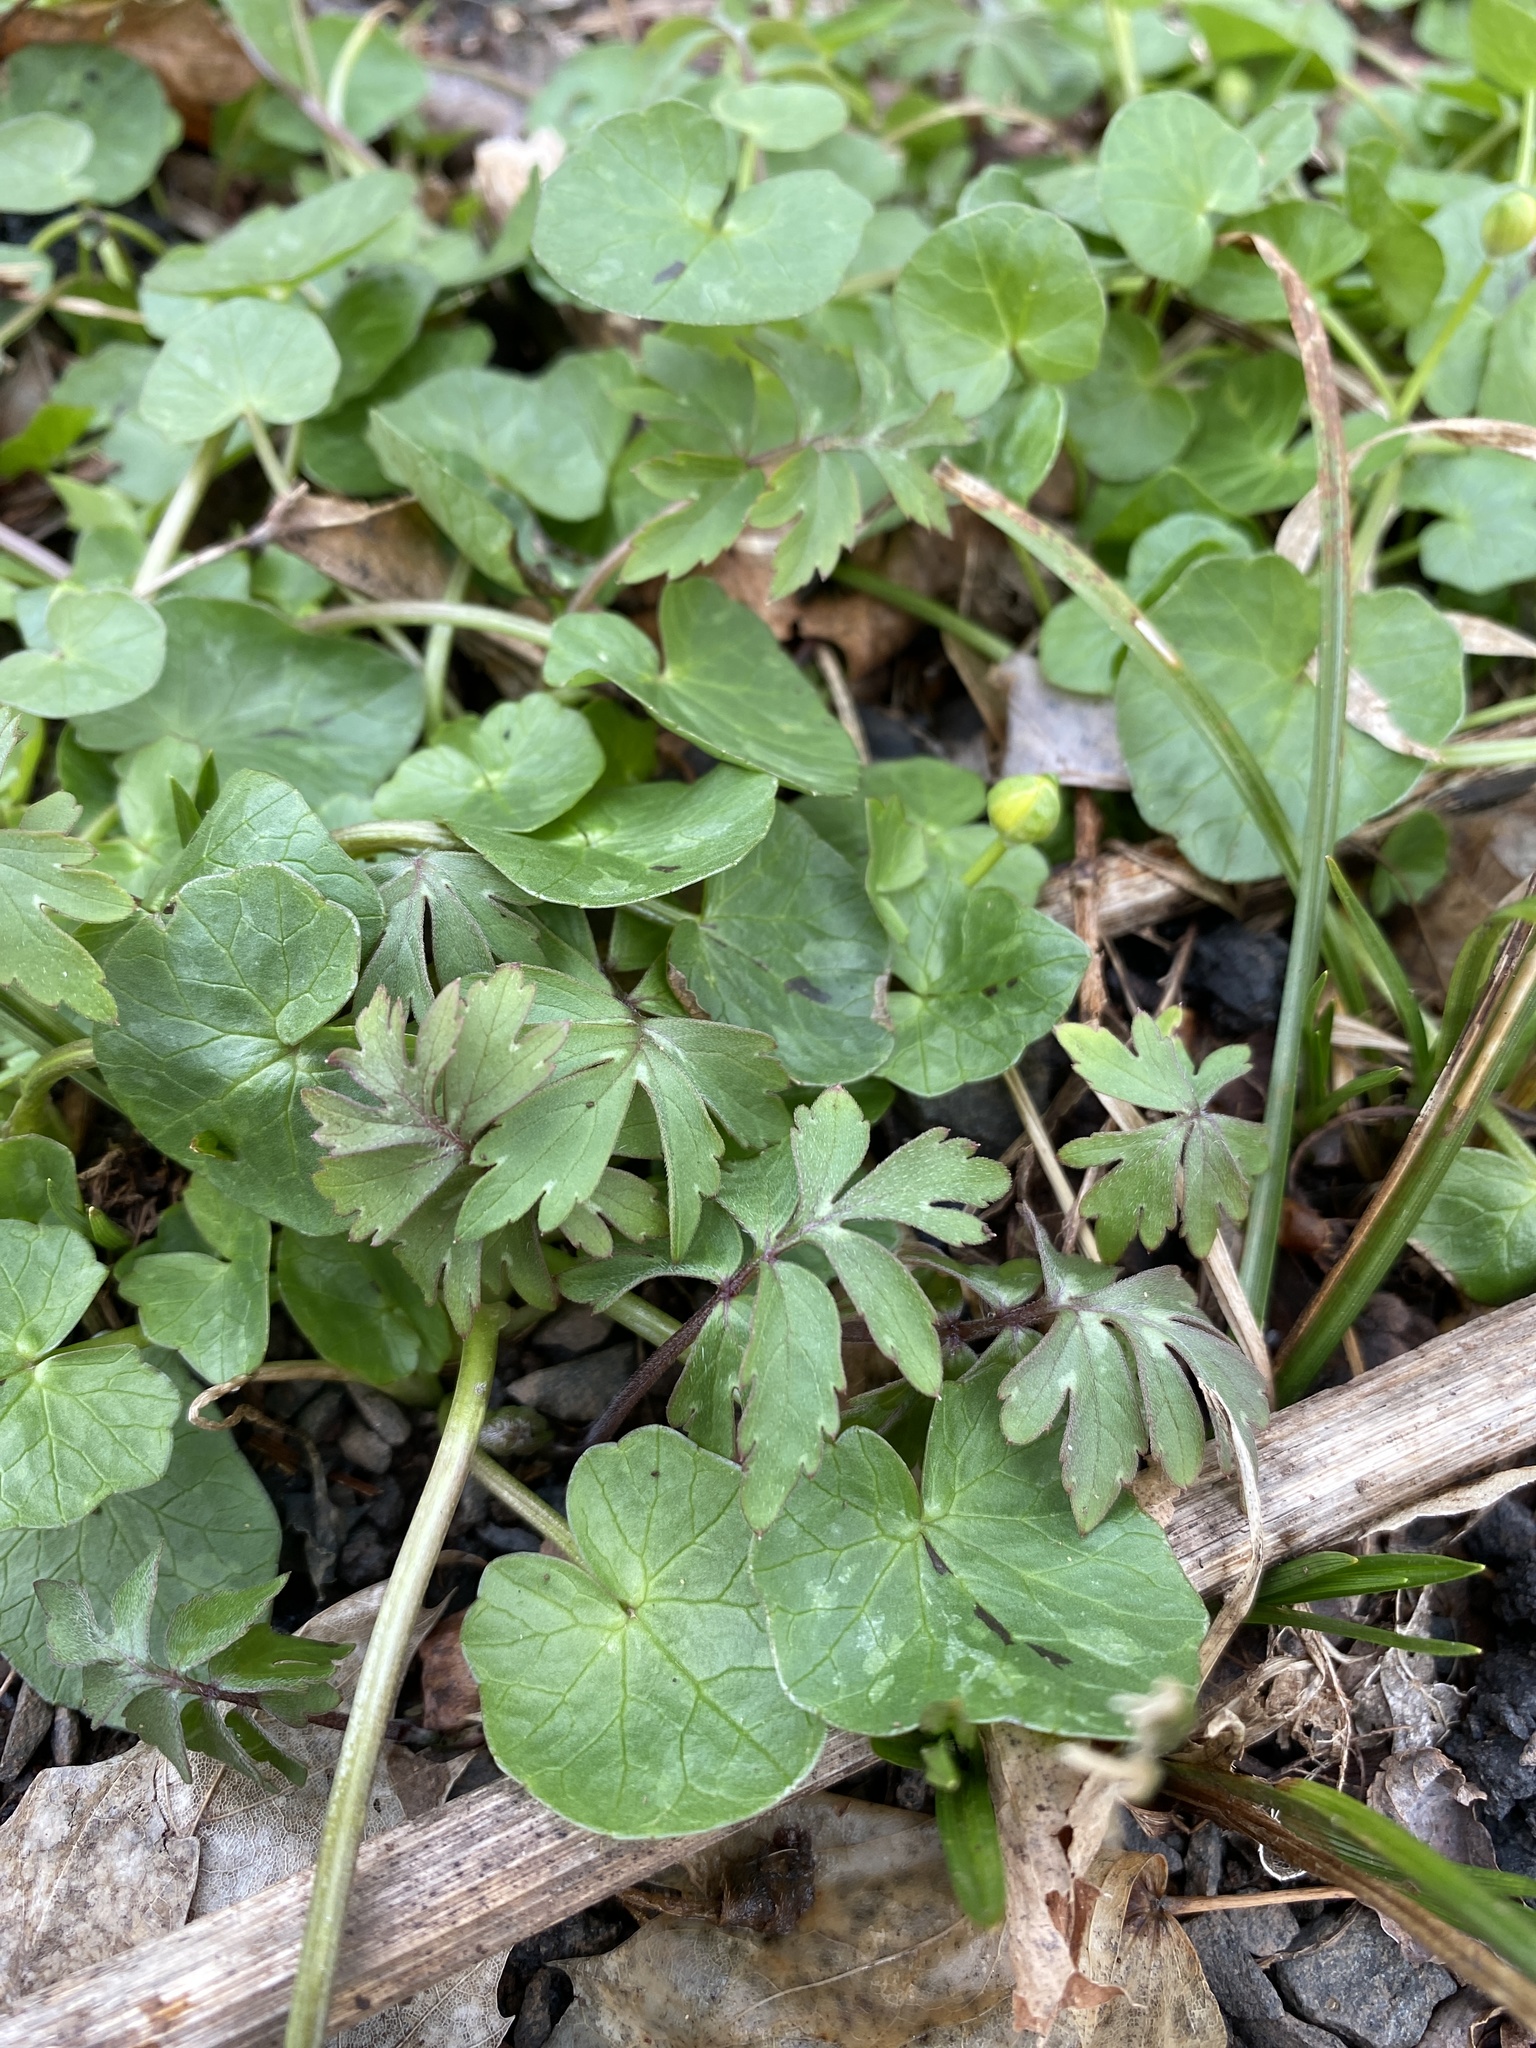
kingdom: Plantae
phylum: Tracheophyta
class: Magnoliopsida
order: Boraginales
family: Hydrophyllaceae
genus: Hydrophyllum
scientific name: Hydrophyllum virginianum
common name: Virginia waterleaf
